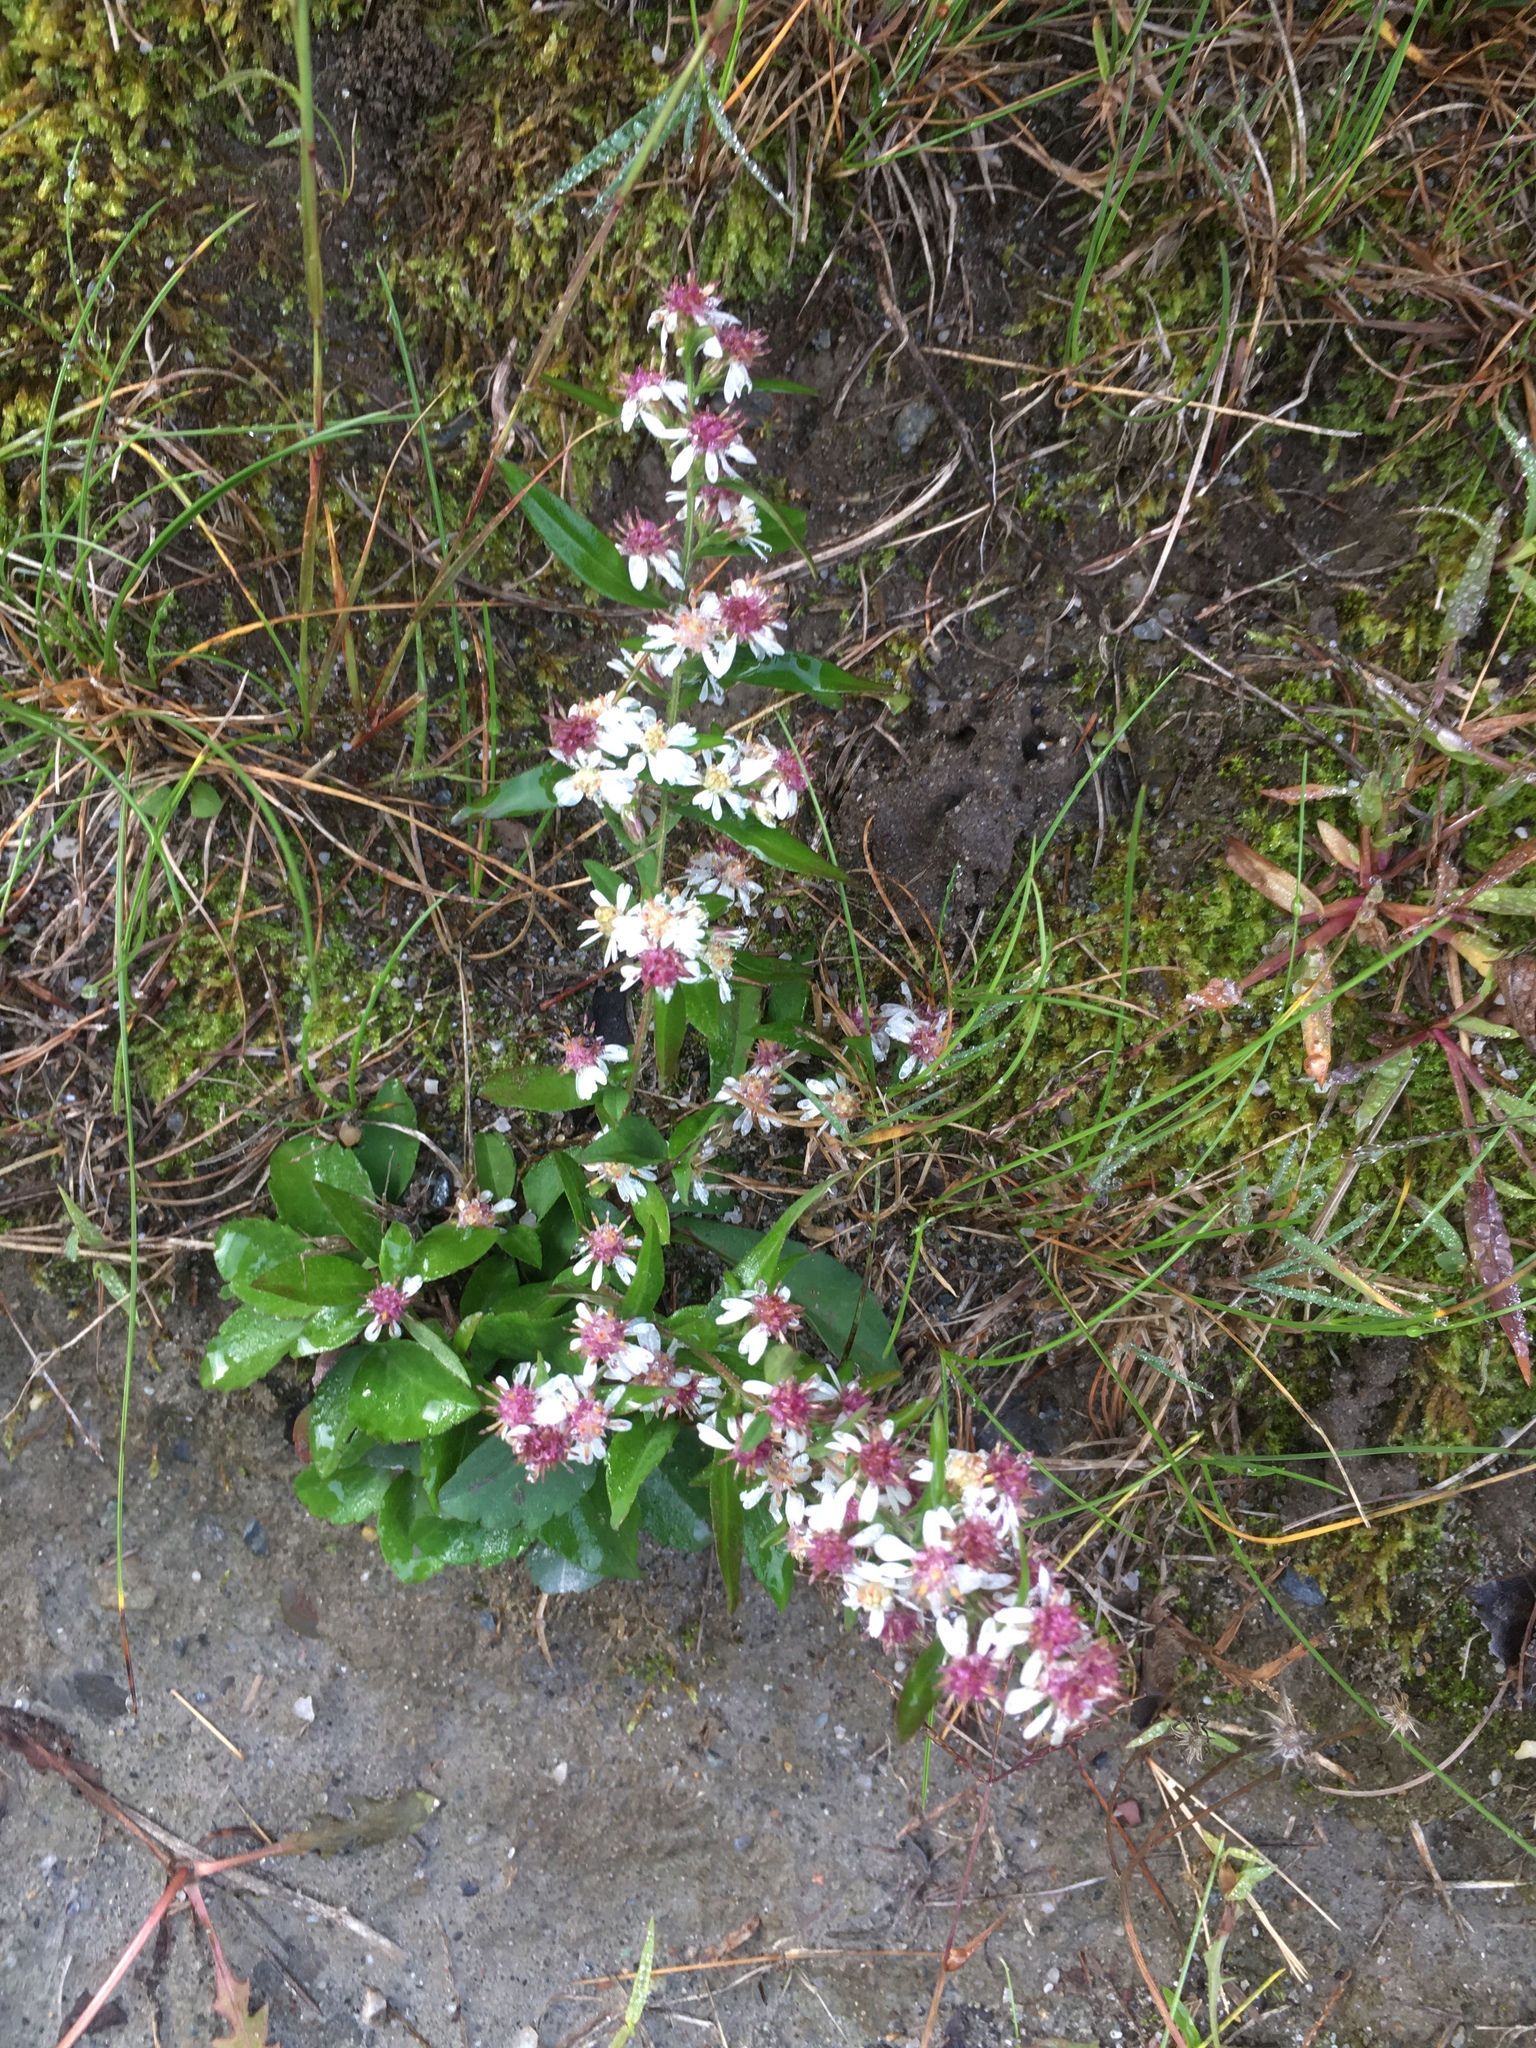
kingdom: Plantae
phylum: Tracheophyta
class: Magnoliopsida
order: Asterales
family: Asteraceae
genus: Symphyotrichum
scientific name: Symphyotrichum lateriflorum
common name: Calico aster
